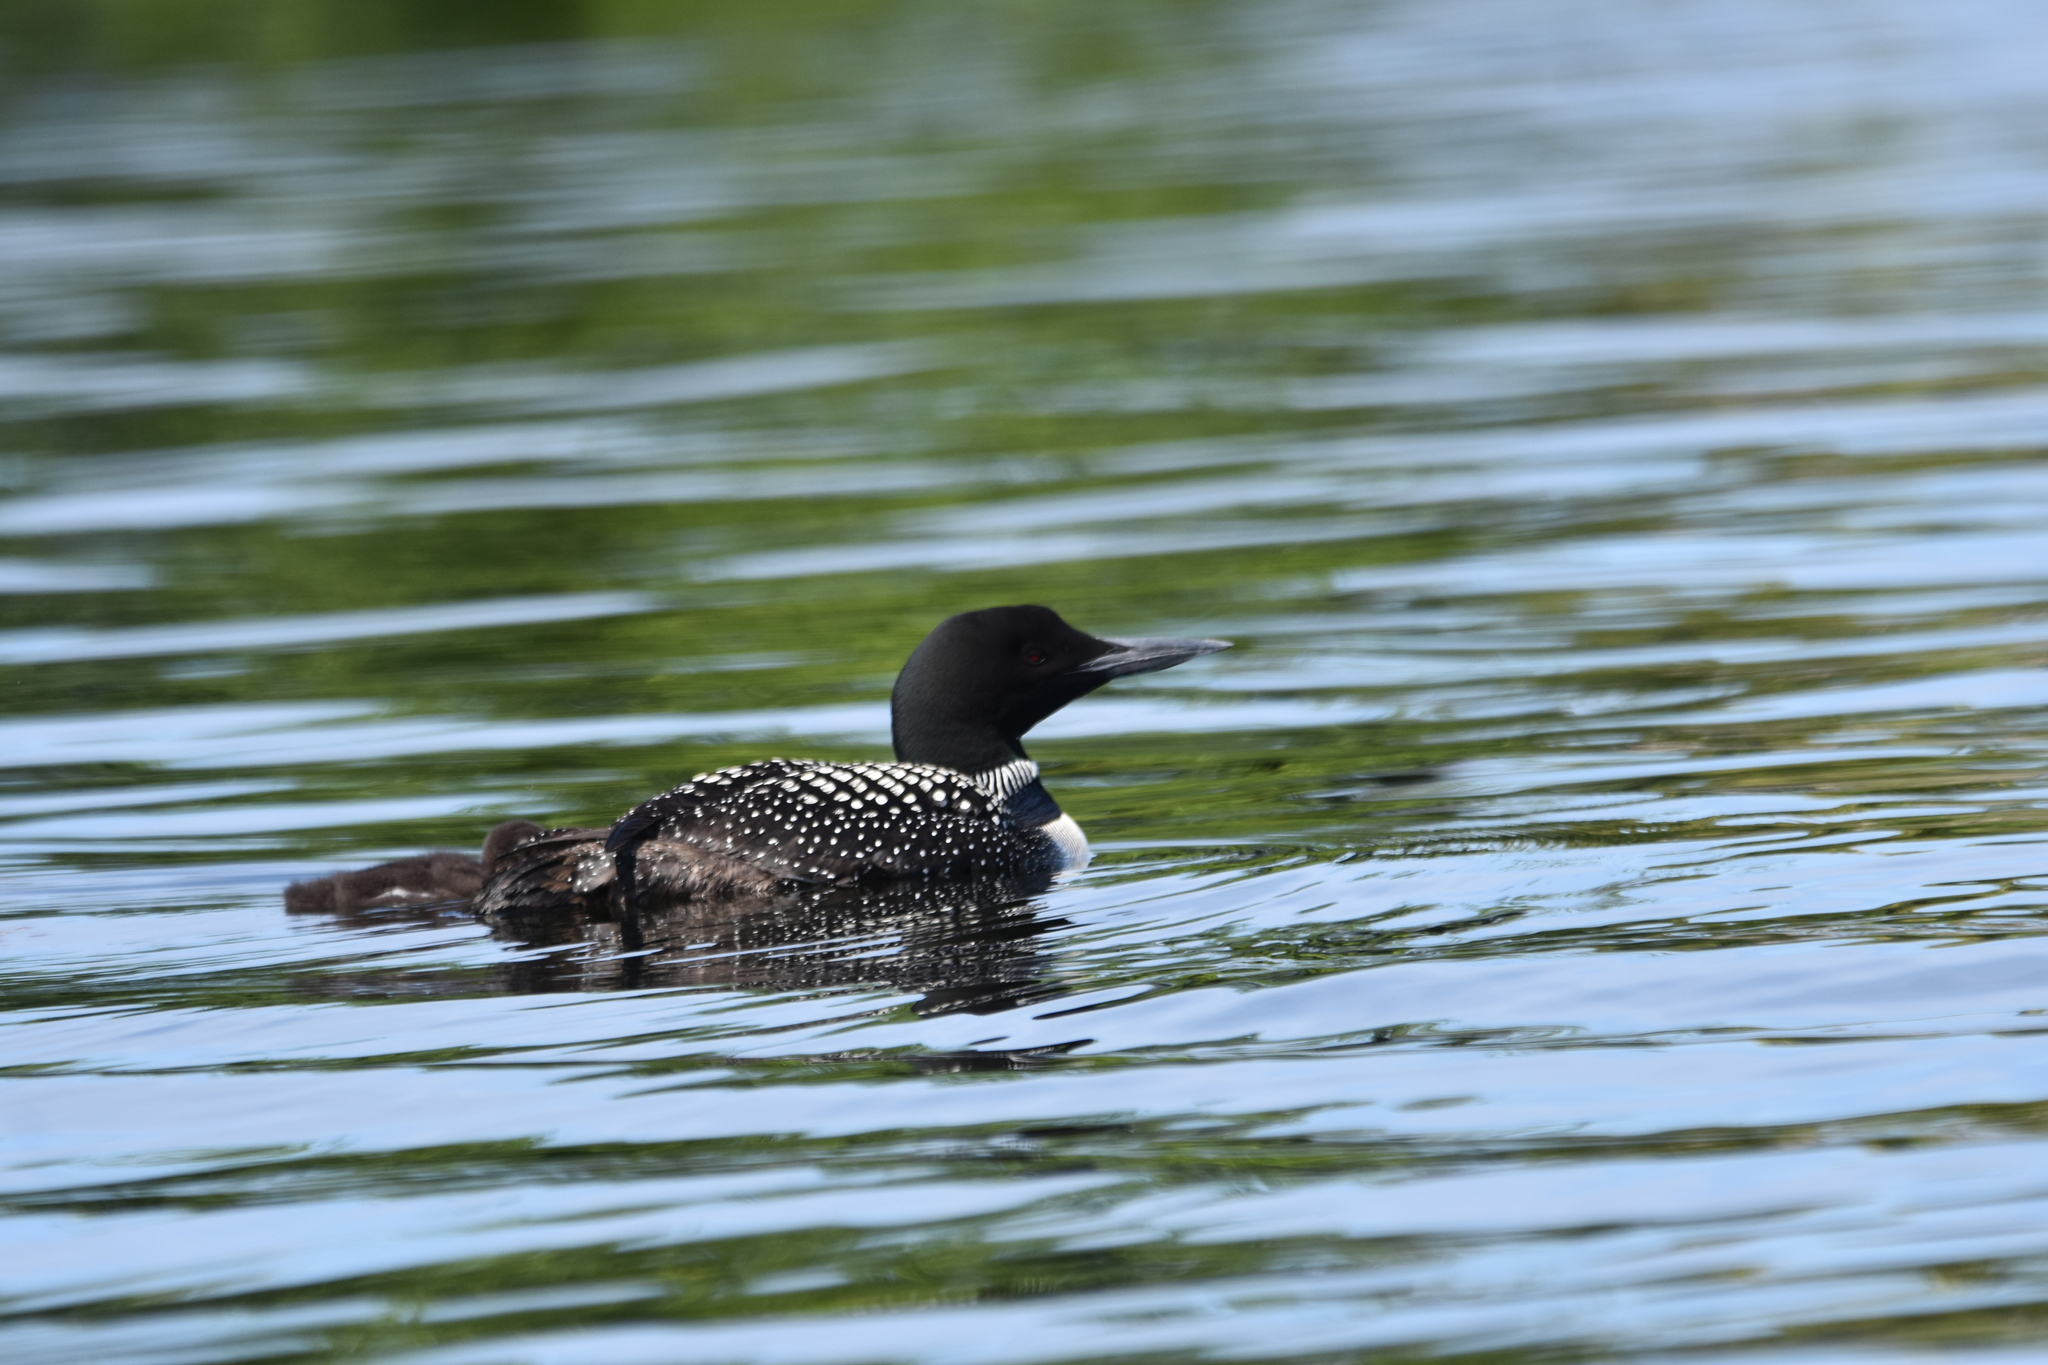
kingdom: Animalia
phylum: Chordata
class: Aves
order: Gaviiformes
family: Gaviidae
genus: Gavia
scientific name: Gavia immer
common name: Common loon
